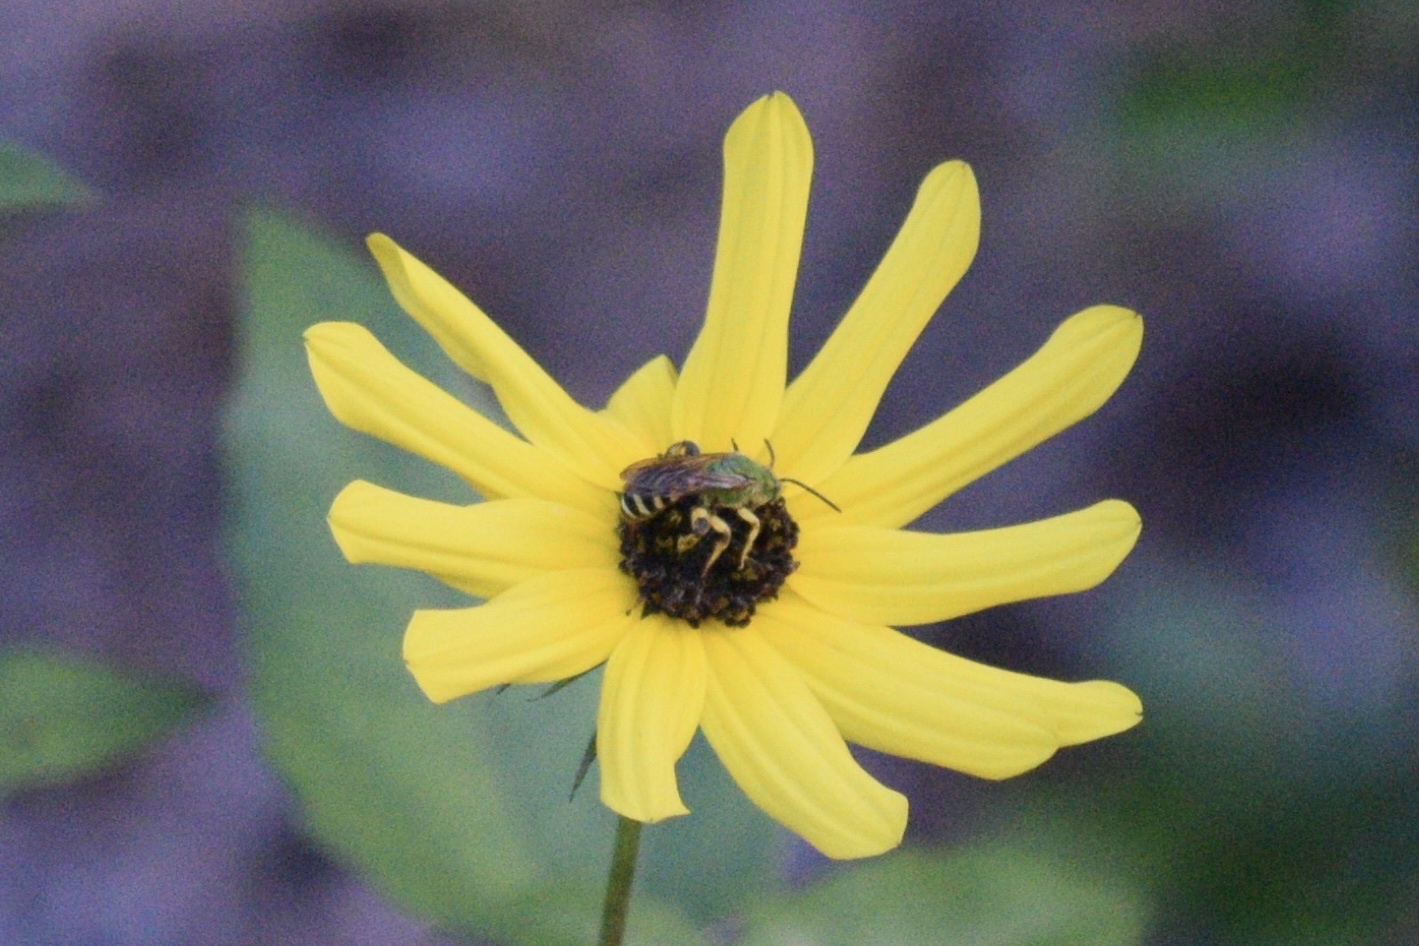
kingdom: Animalia
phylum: Arthropoda
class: Insecta
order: Hymenoptera
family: Halictidae
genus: Agapostemon
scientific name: Agapostemon splendens
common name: Brown-winged striped sweat bee
